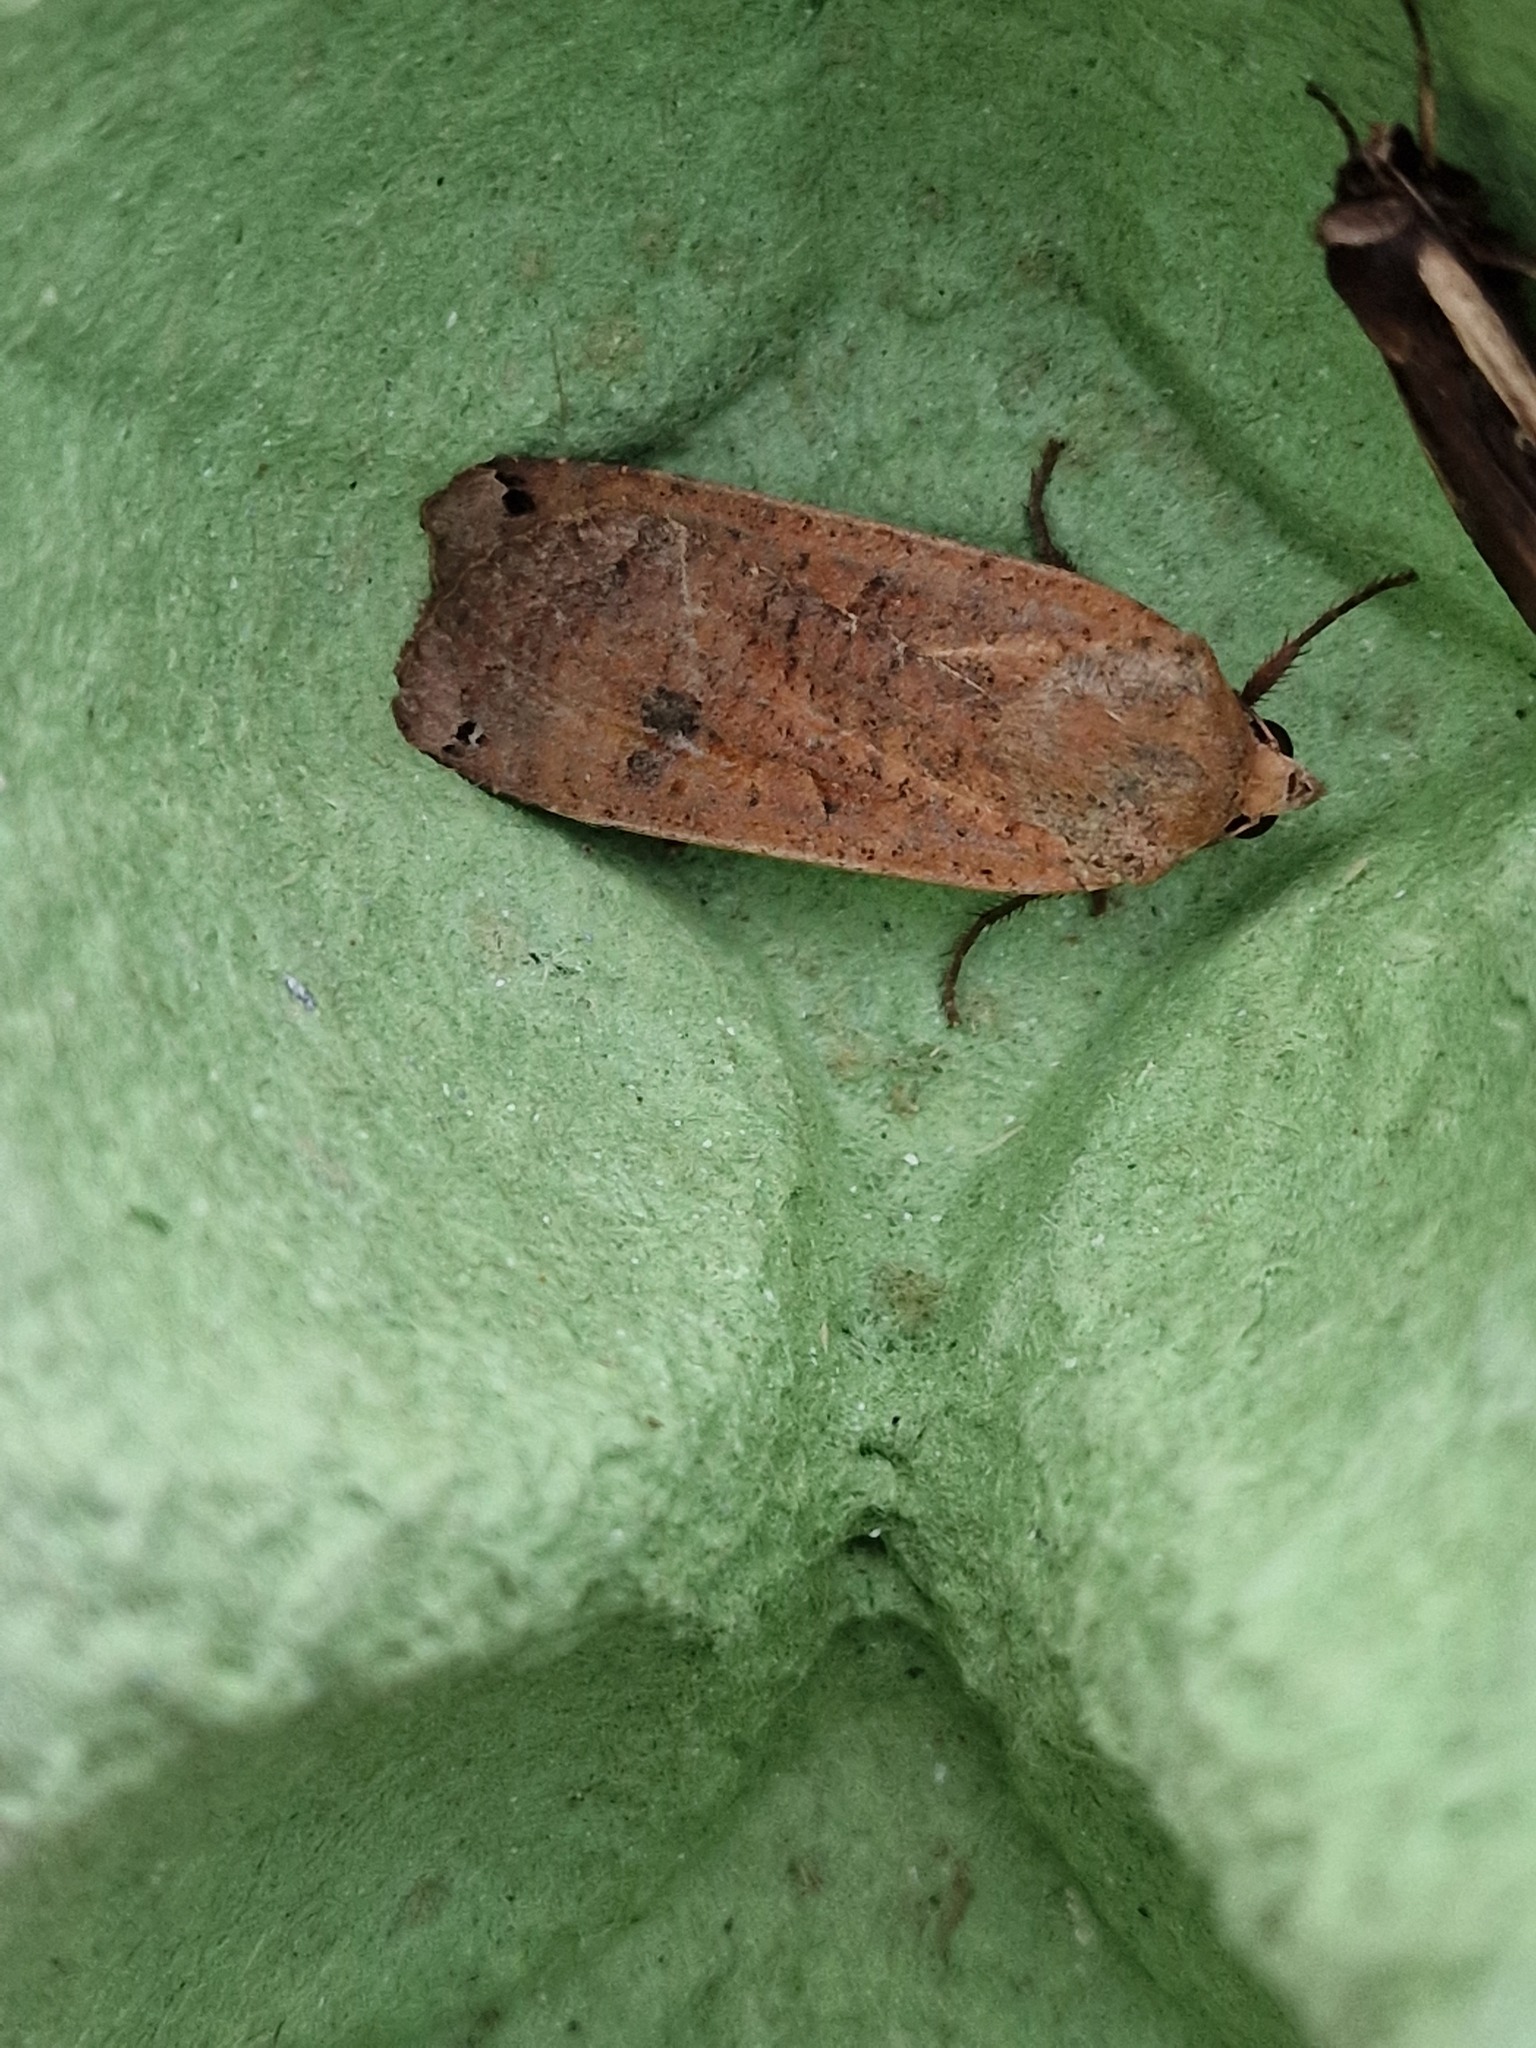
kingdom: Animalia
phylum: Arthropoda
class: Insecta
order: Lepidoptera
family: Noctuidae
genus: Noctua
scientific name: Noctua pronuba
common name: Large yellow underwing
